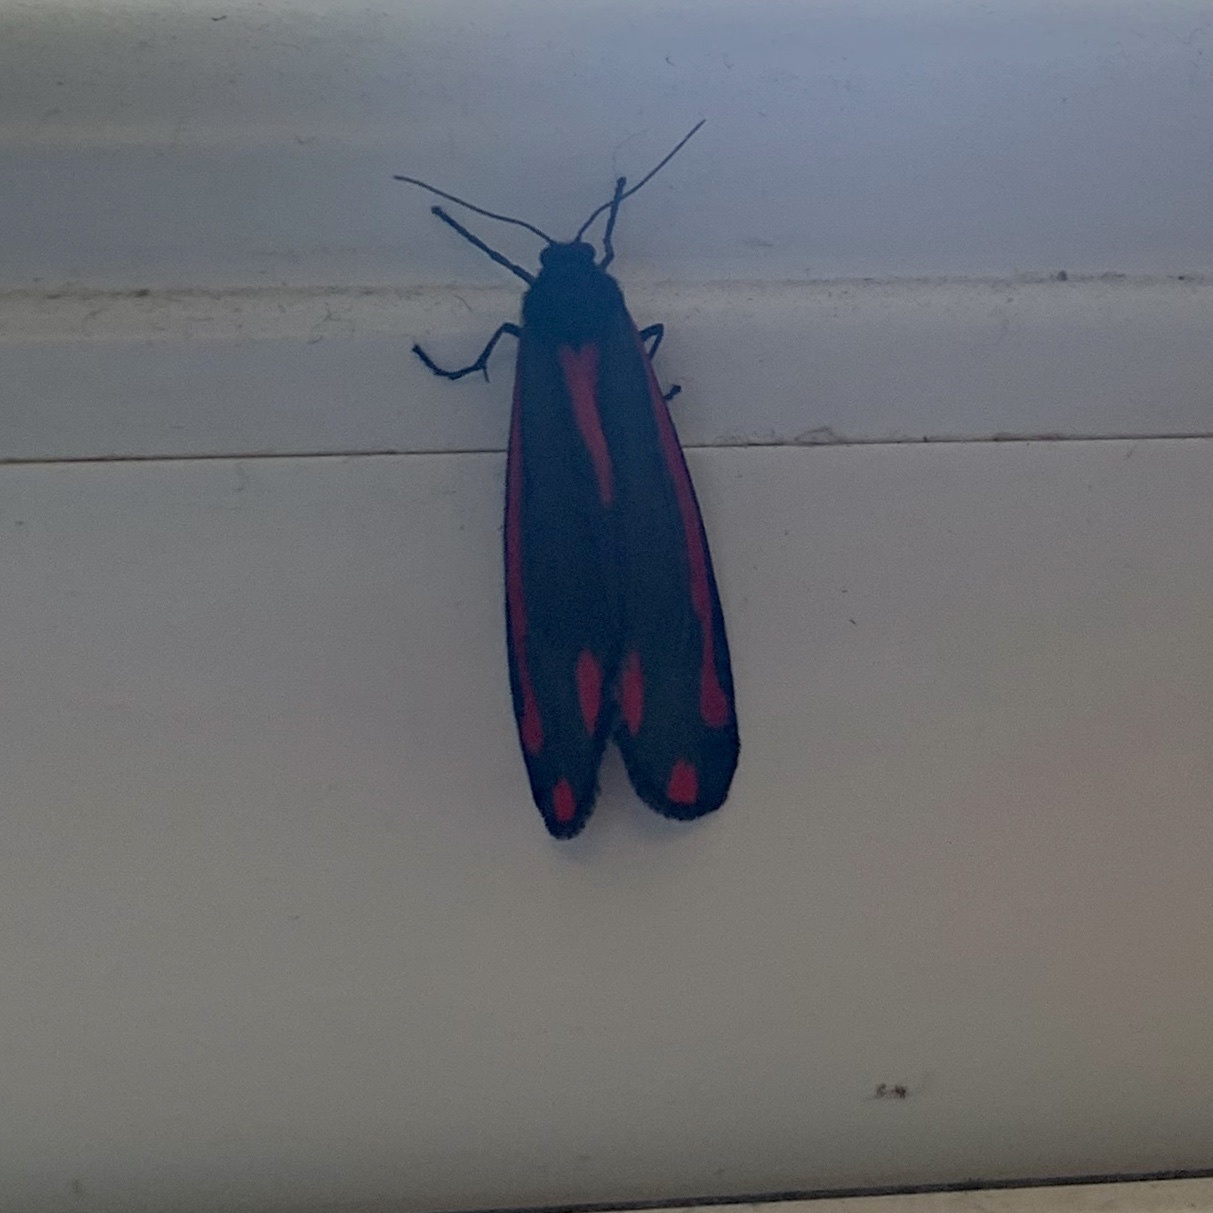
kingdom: Animalia
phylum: Arthropoda
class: Insecta
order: Lepidoptera
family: Erebidae
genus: Tyria
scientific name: Tyria jacobaeae
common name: Cinnabar
